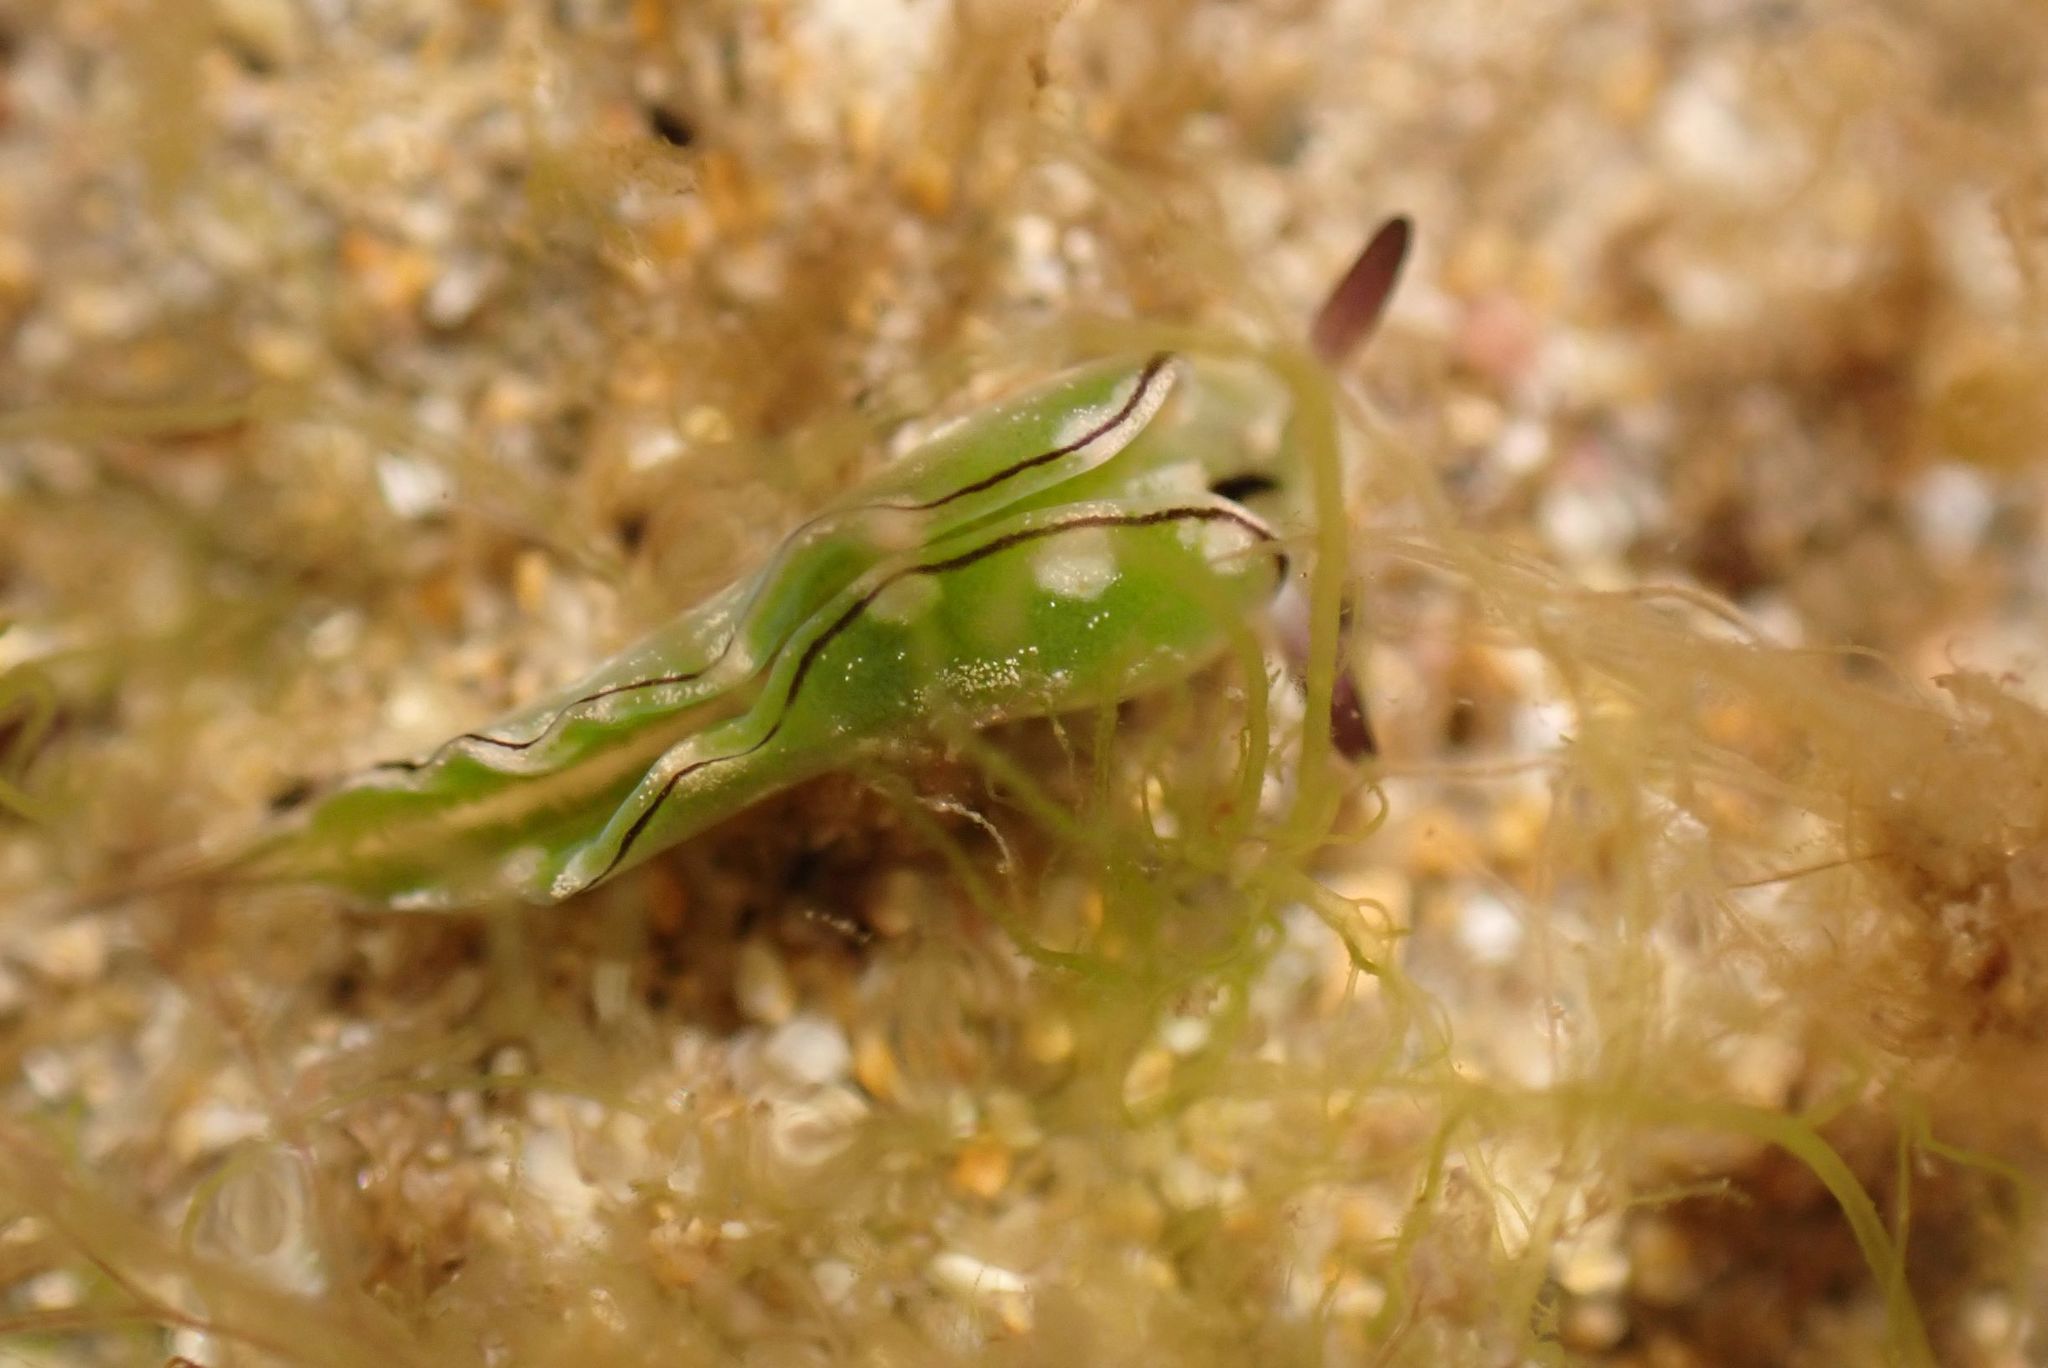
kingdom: Animalia
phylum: Mollusca
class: Gastropoda
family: Plakobranchidae
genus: Elysia
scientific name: Elysia coodgeensis
